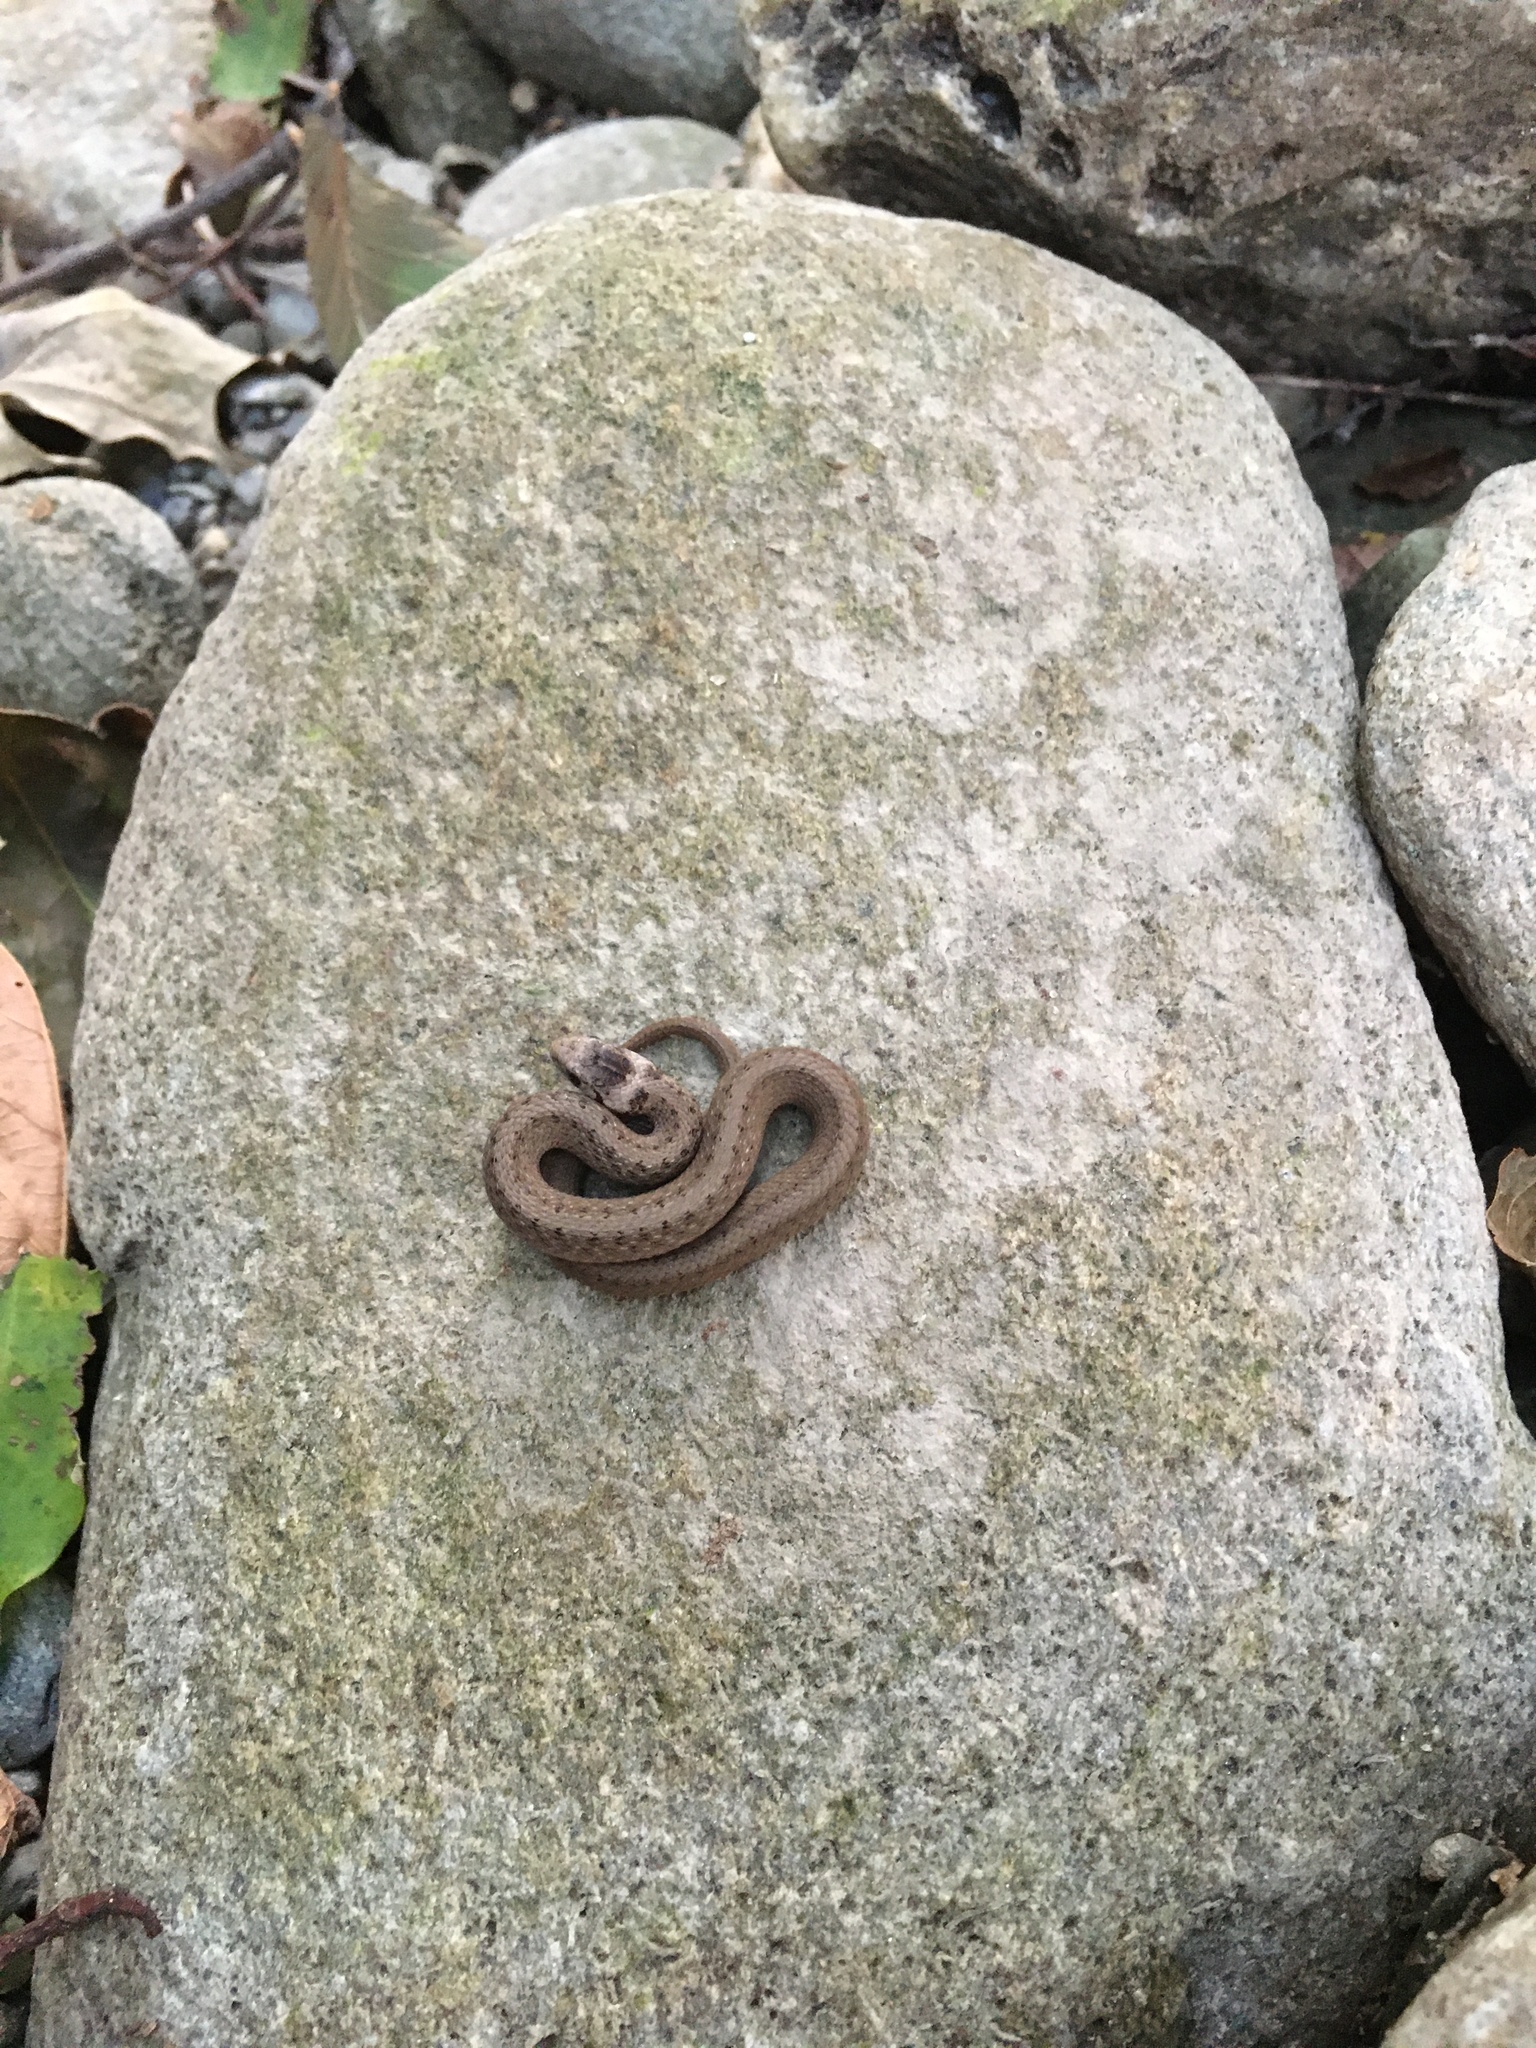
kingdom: Animalia
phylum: Chordata
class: Squamata
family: Colubridae
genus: Storeria
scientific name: Storeria dekayi
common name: (dekay’s) brown snake
